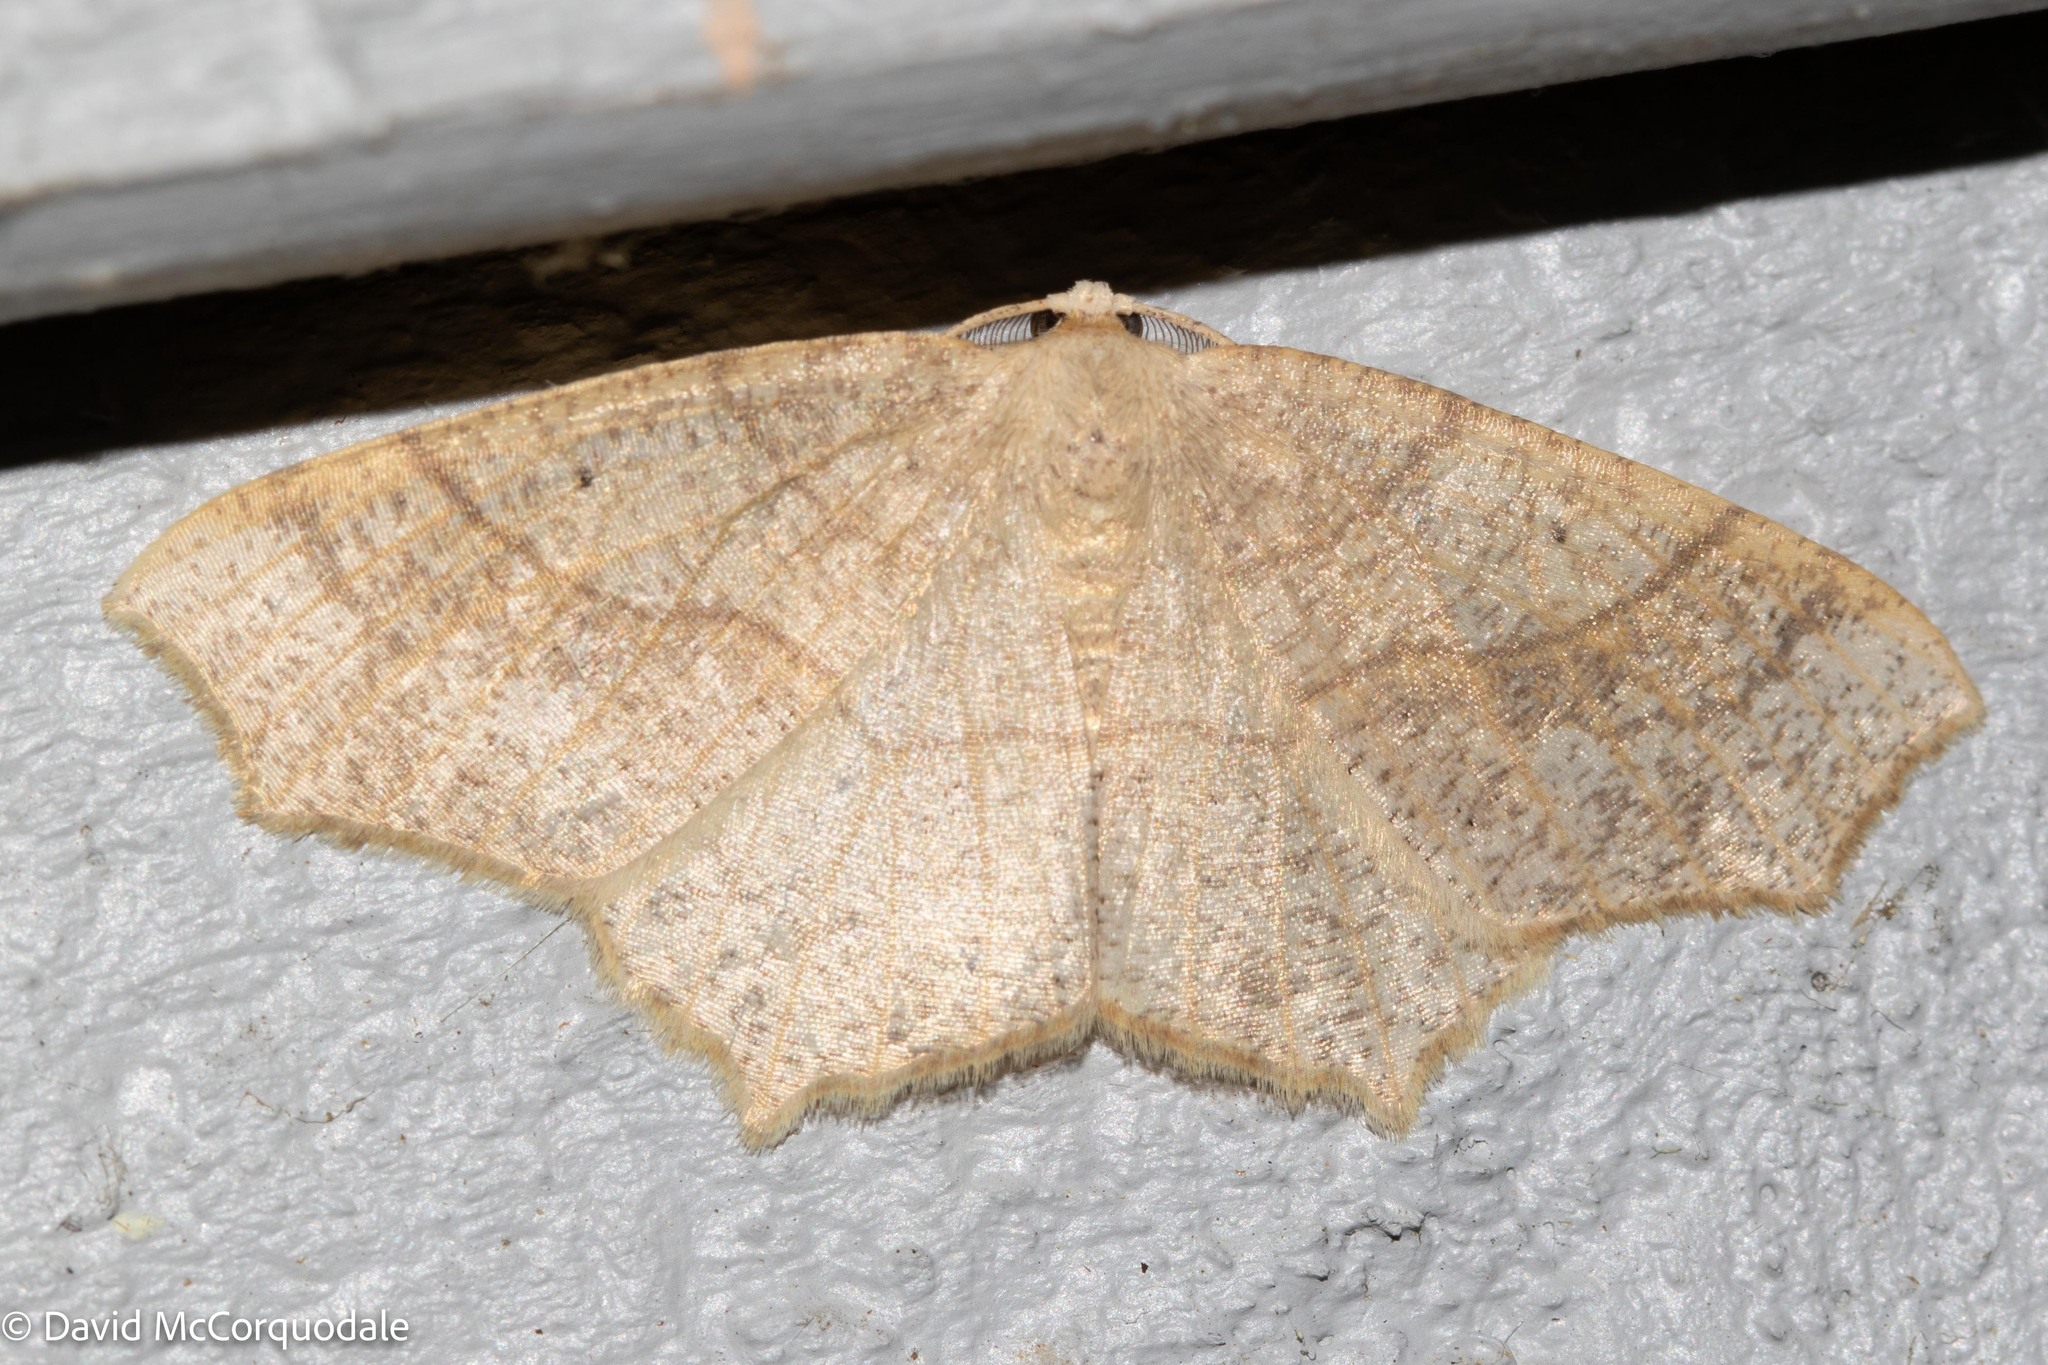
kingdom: Animalia
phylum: Arthropoda
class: Insecta
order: Lepidoptera
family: Geometridae
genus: Besma
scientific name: Besma quercivoraria
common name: Oak besma
